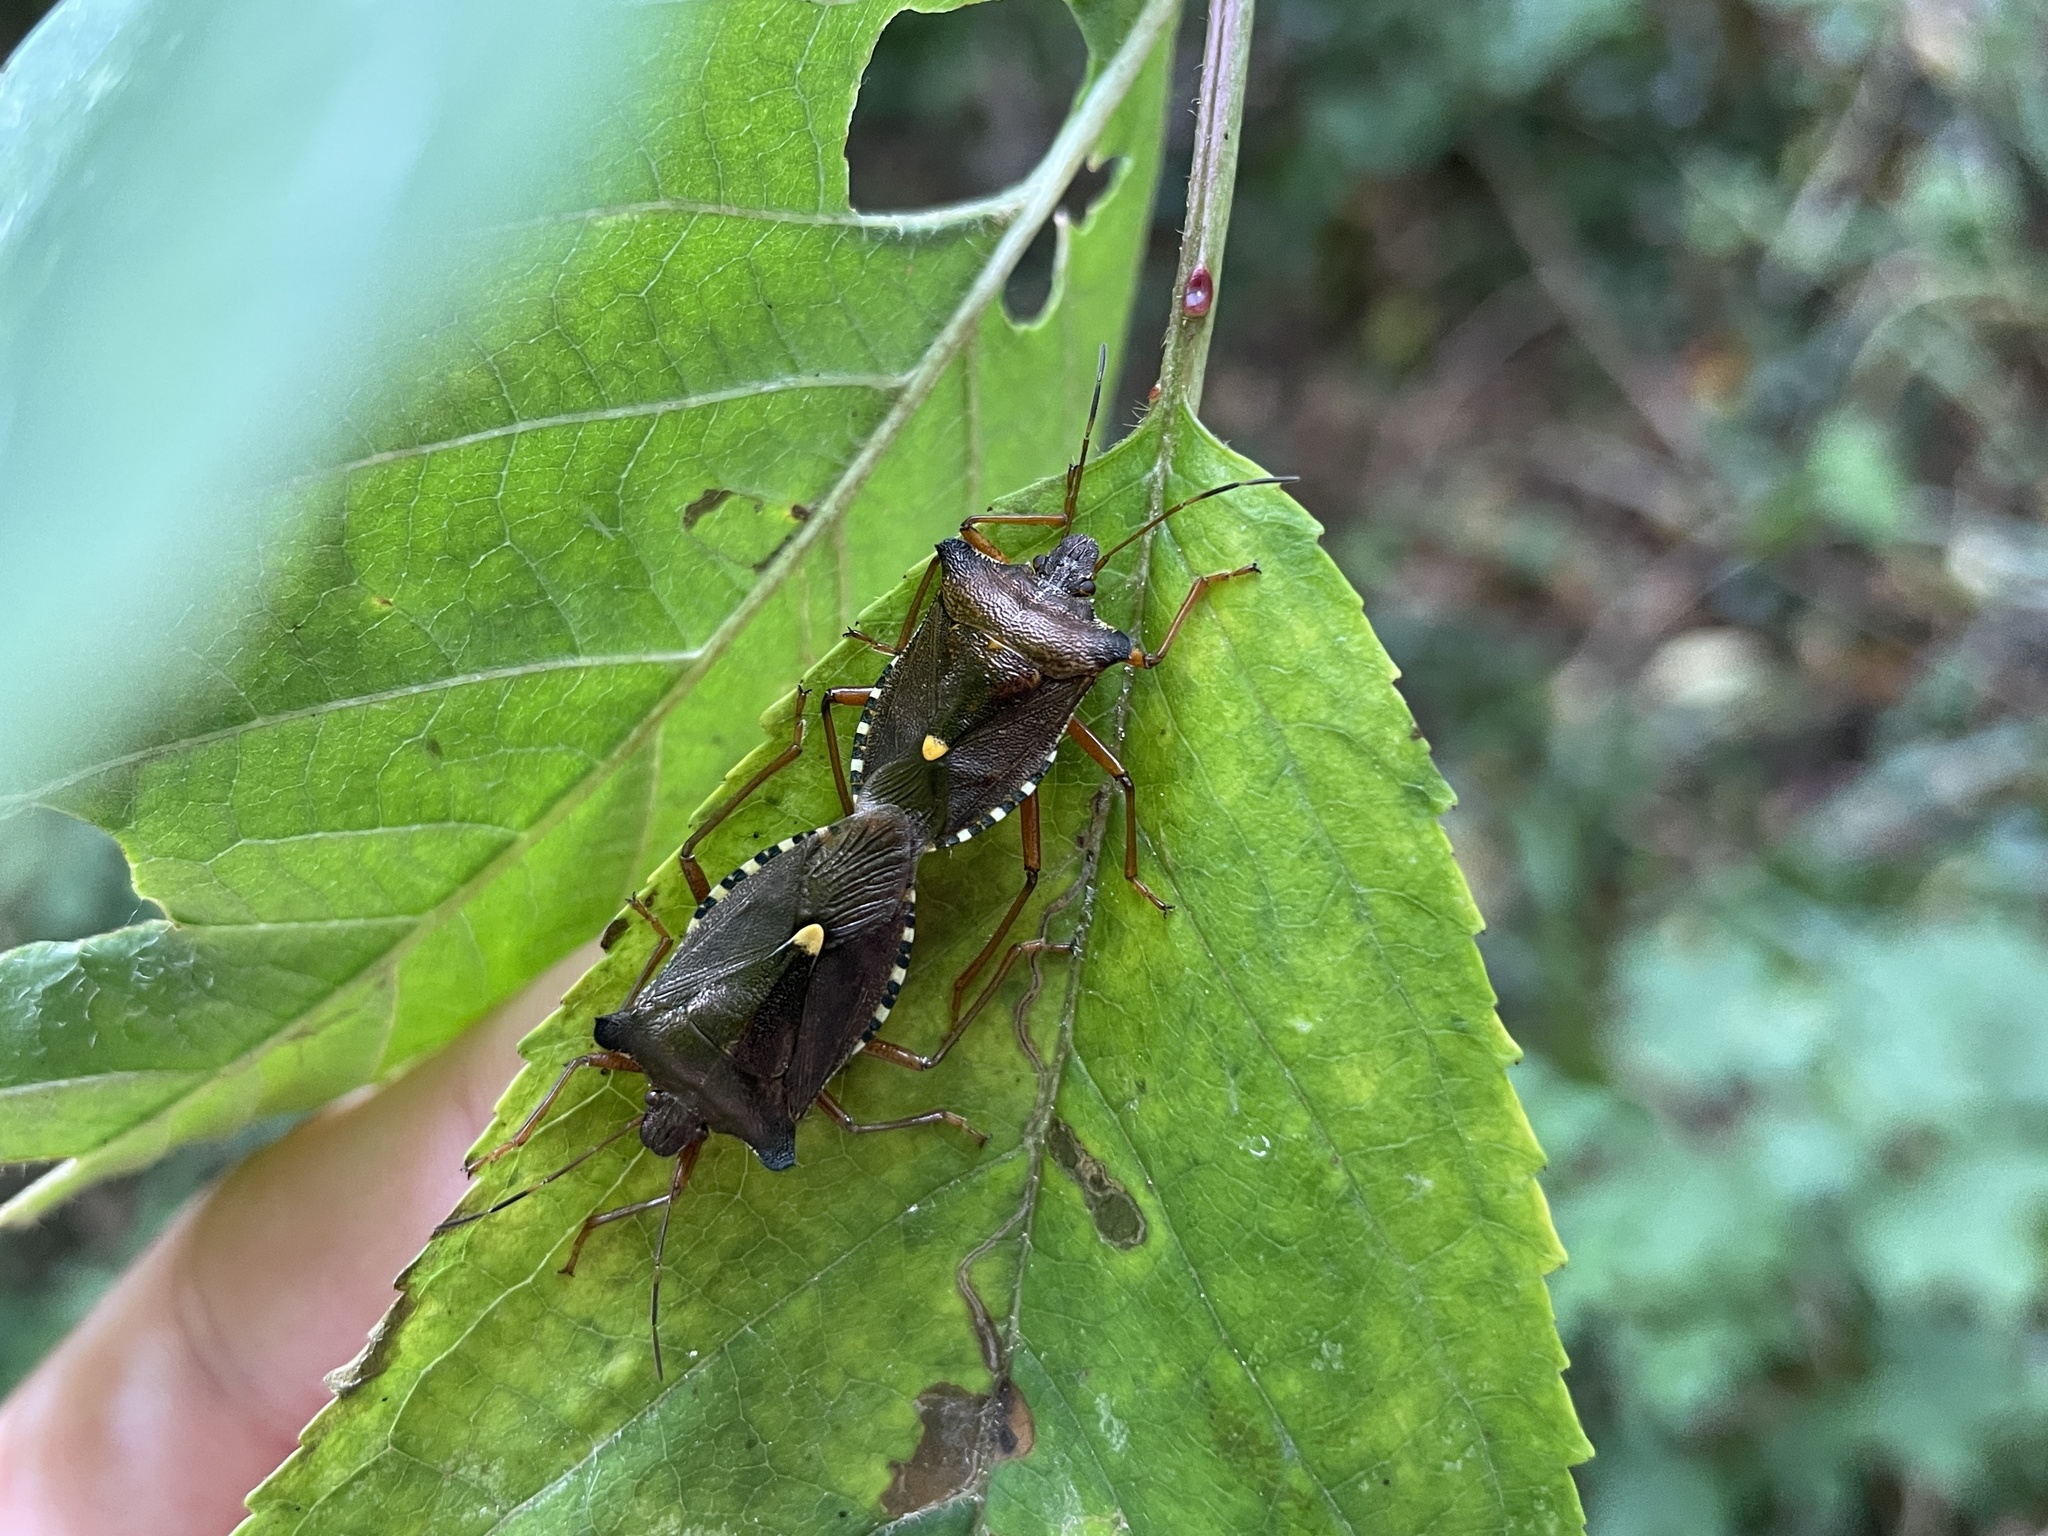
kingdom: Animalia
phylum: Arthropoda
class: Insecta
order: Hemiptera
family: Pentatomidae
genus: Pentatoma
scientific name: Pentatoma rufipes
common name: Forest bug
